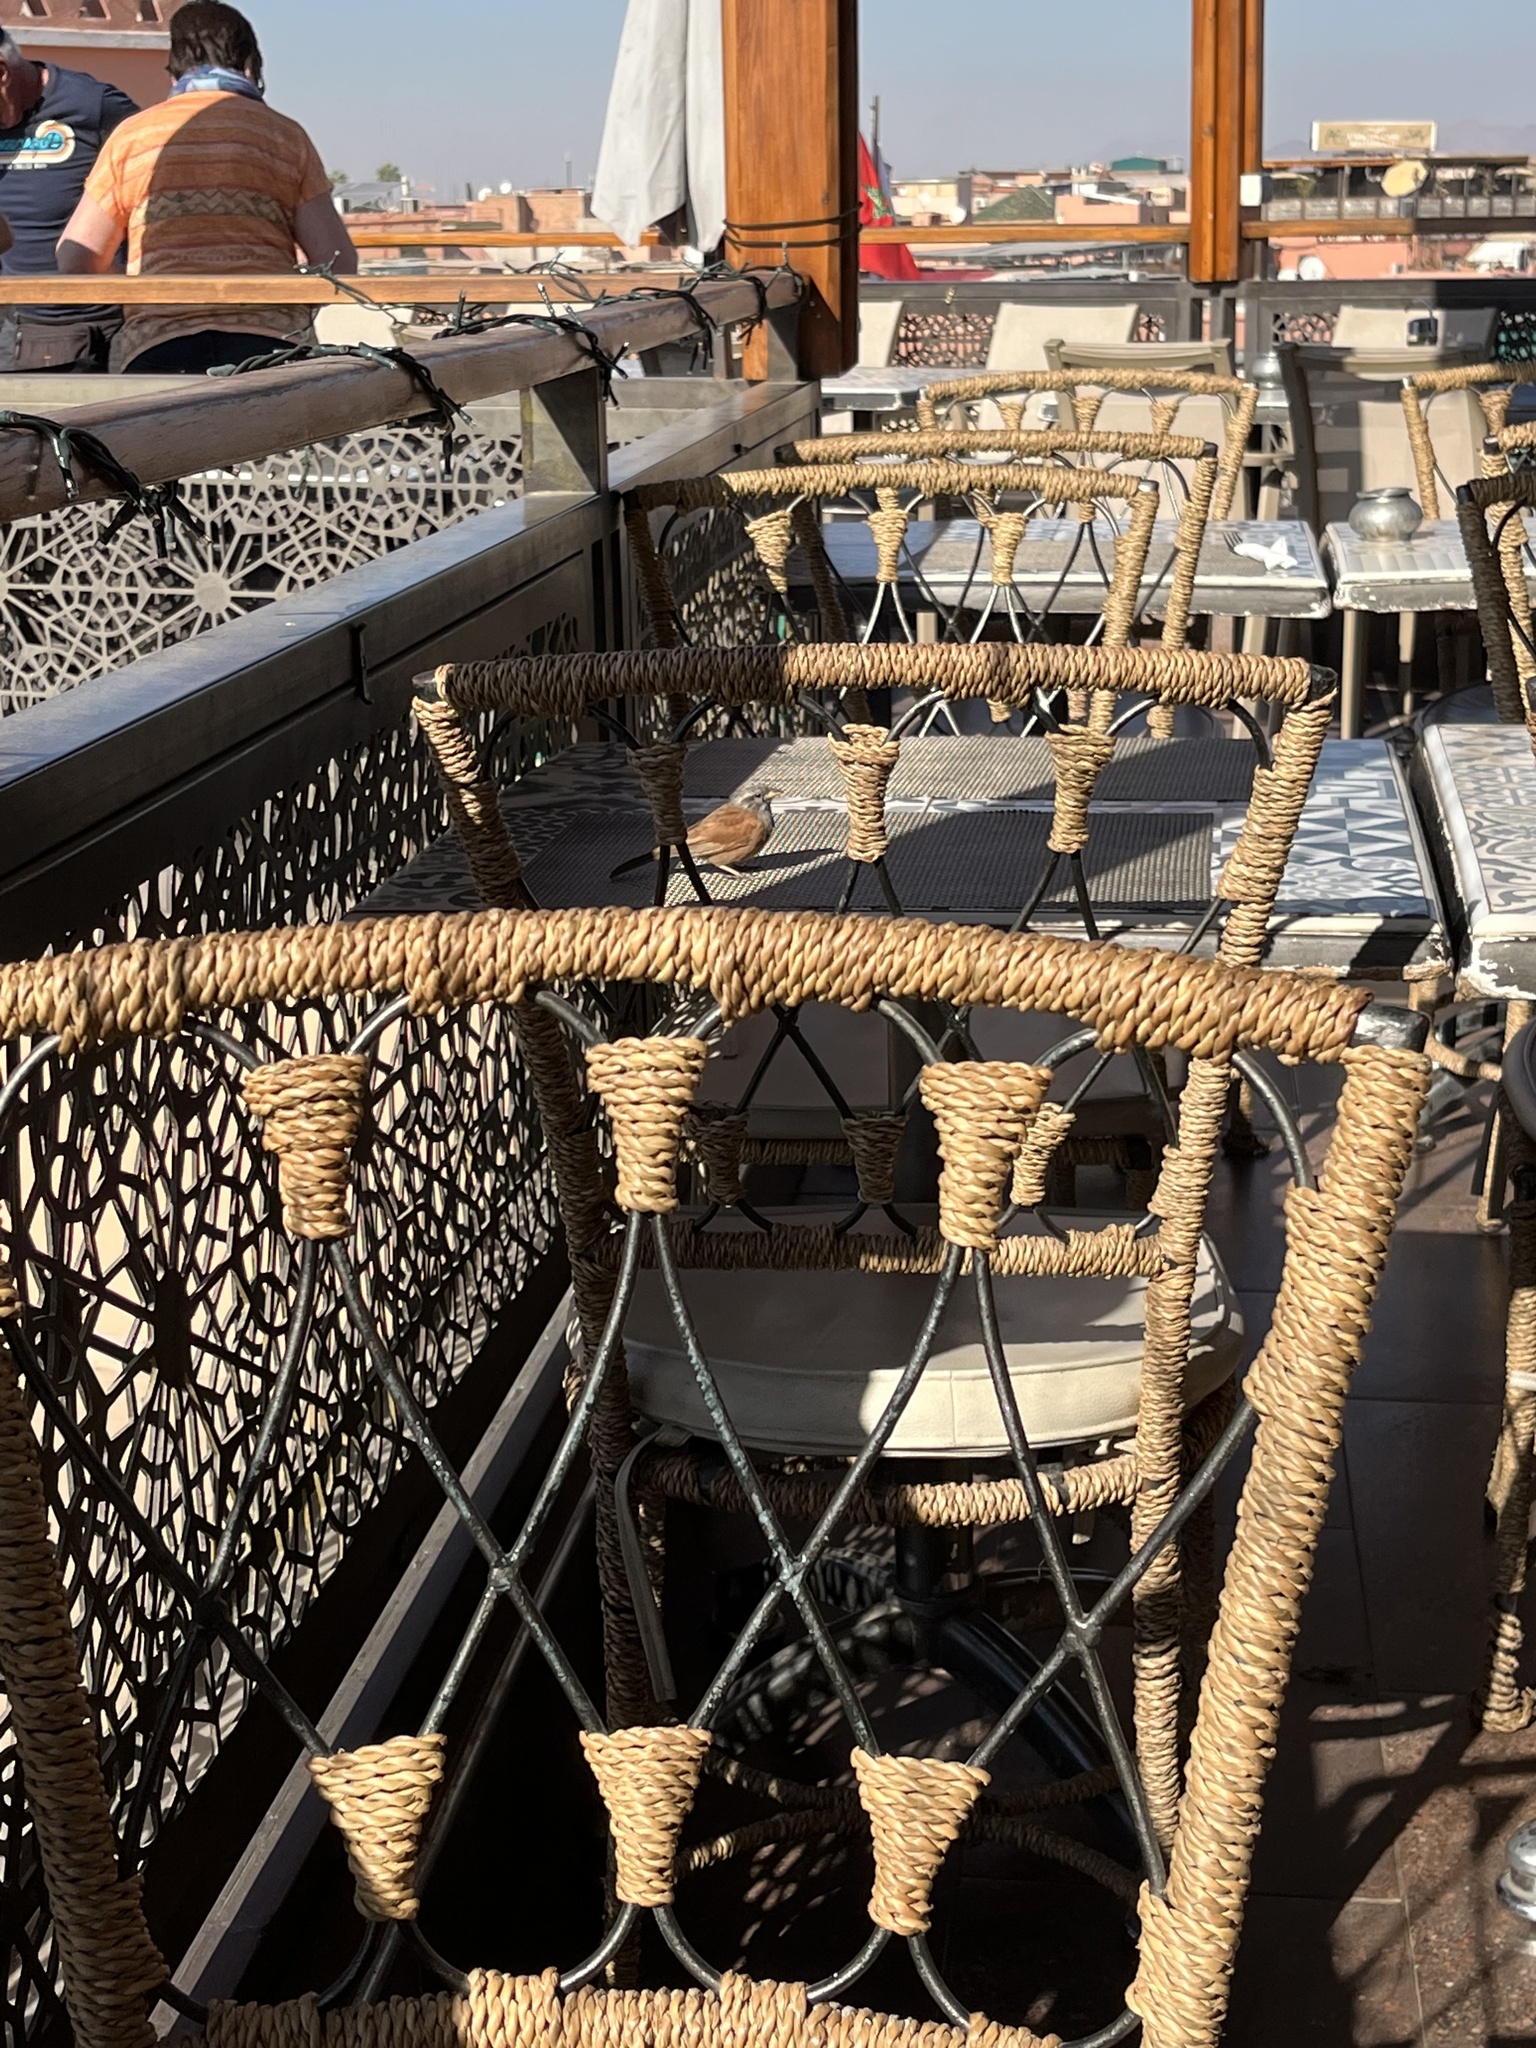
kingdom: Animalia
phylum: Chordata
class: Aves
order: Passeriformes
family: Emberizidae
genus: Emberiza
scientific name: Emberiza sahari
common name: House bunting
